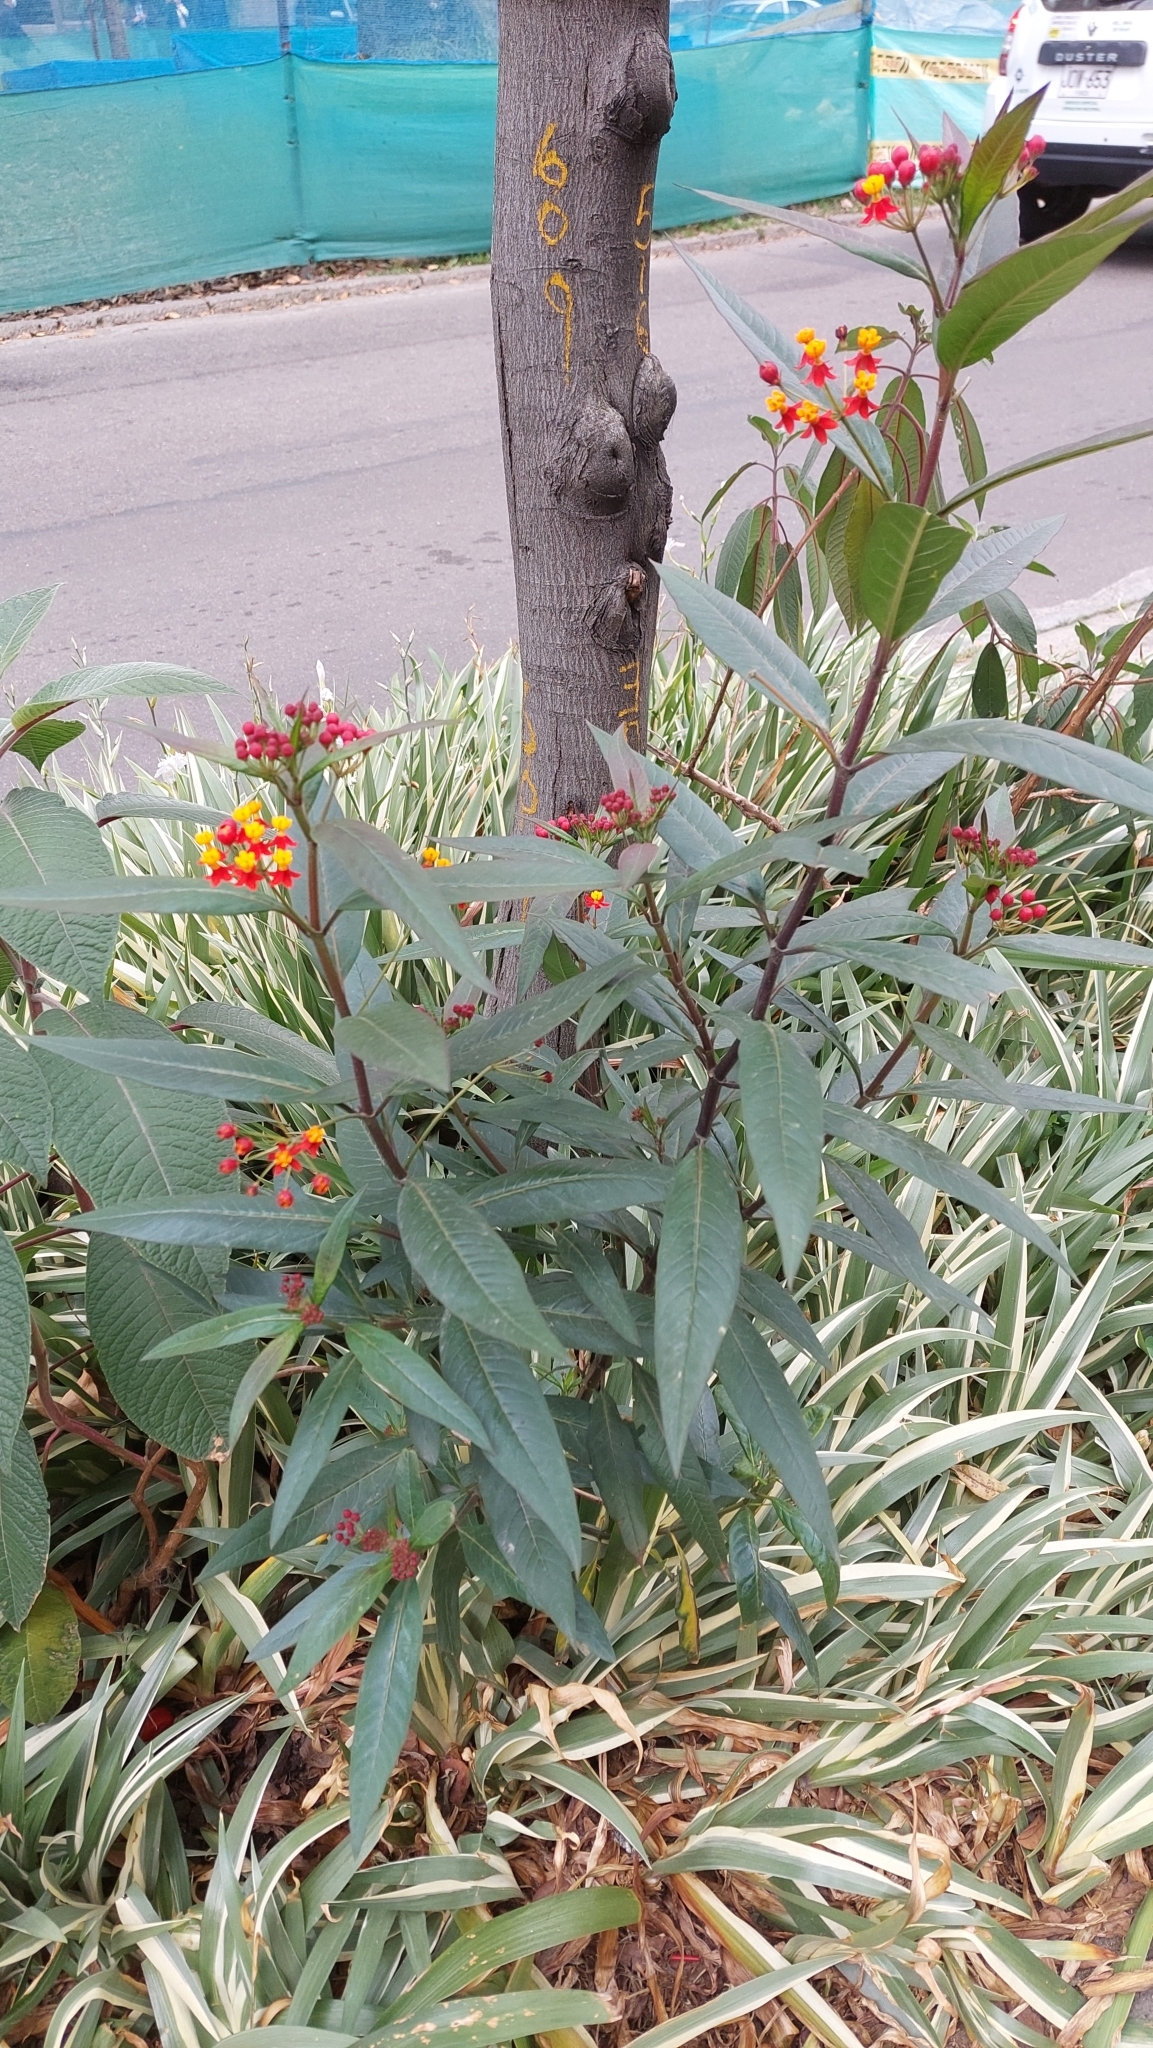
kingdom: Plantae
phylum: Tracheophyta
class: Magnoliopsida
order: Gentianales
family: Apocynaceae
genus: Asclepias
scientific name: Asclepias curassavica
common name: Bloodflower
